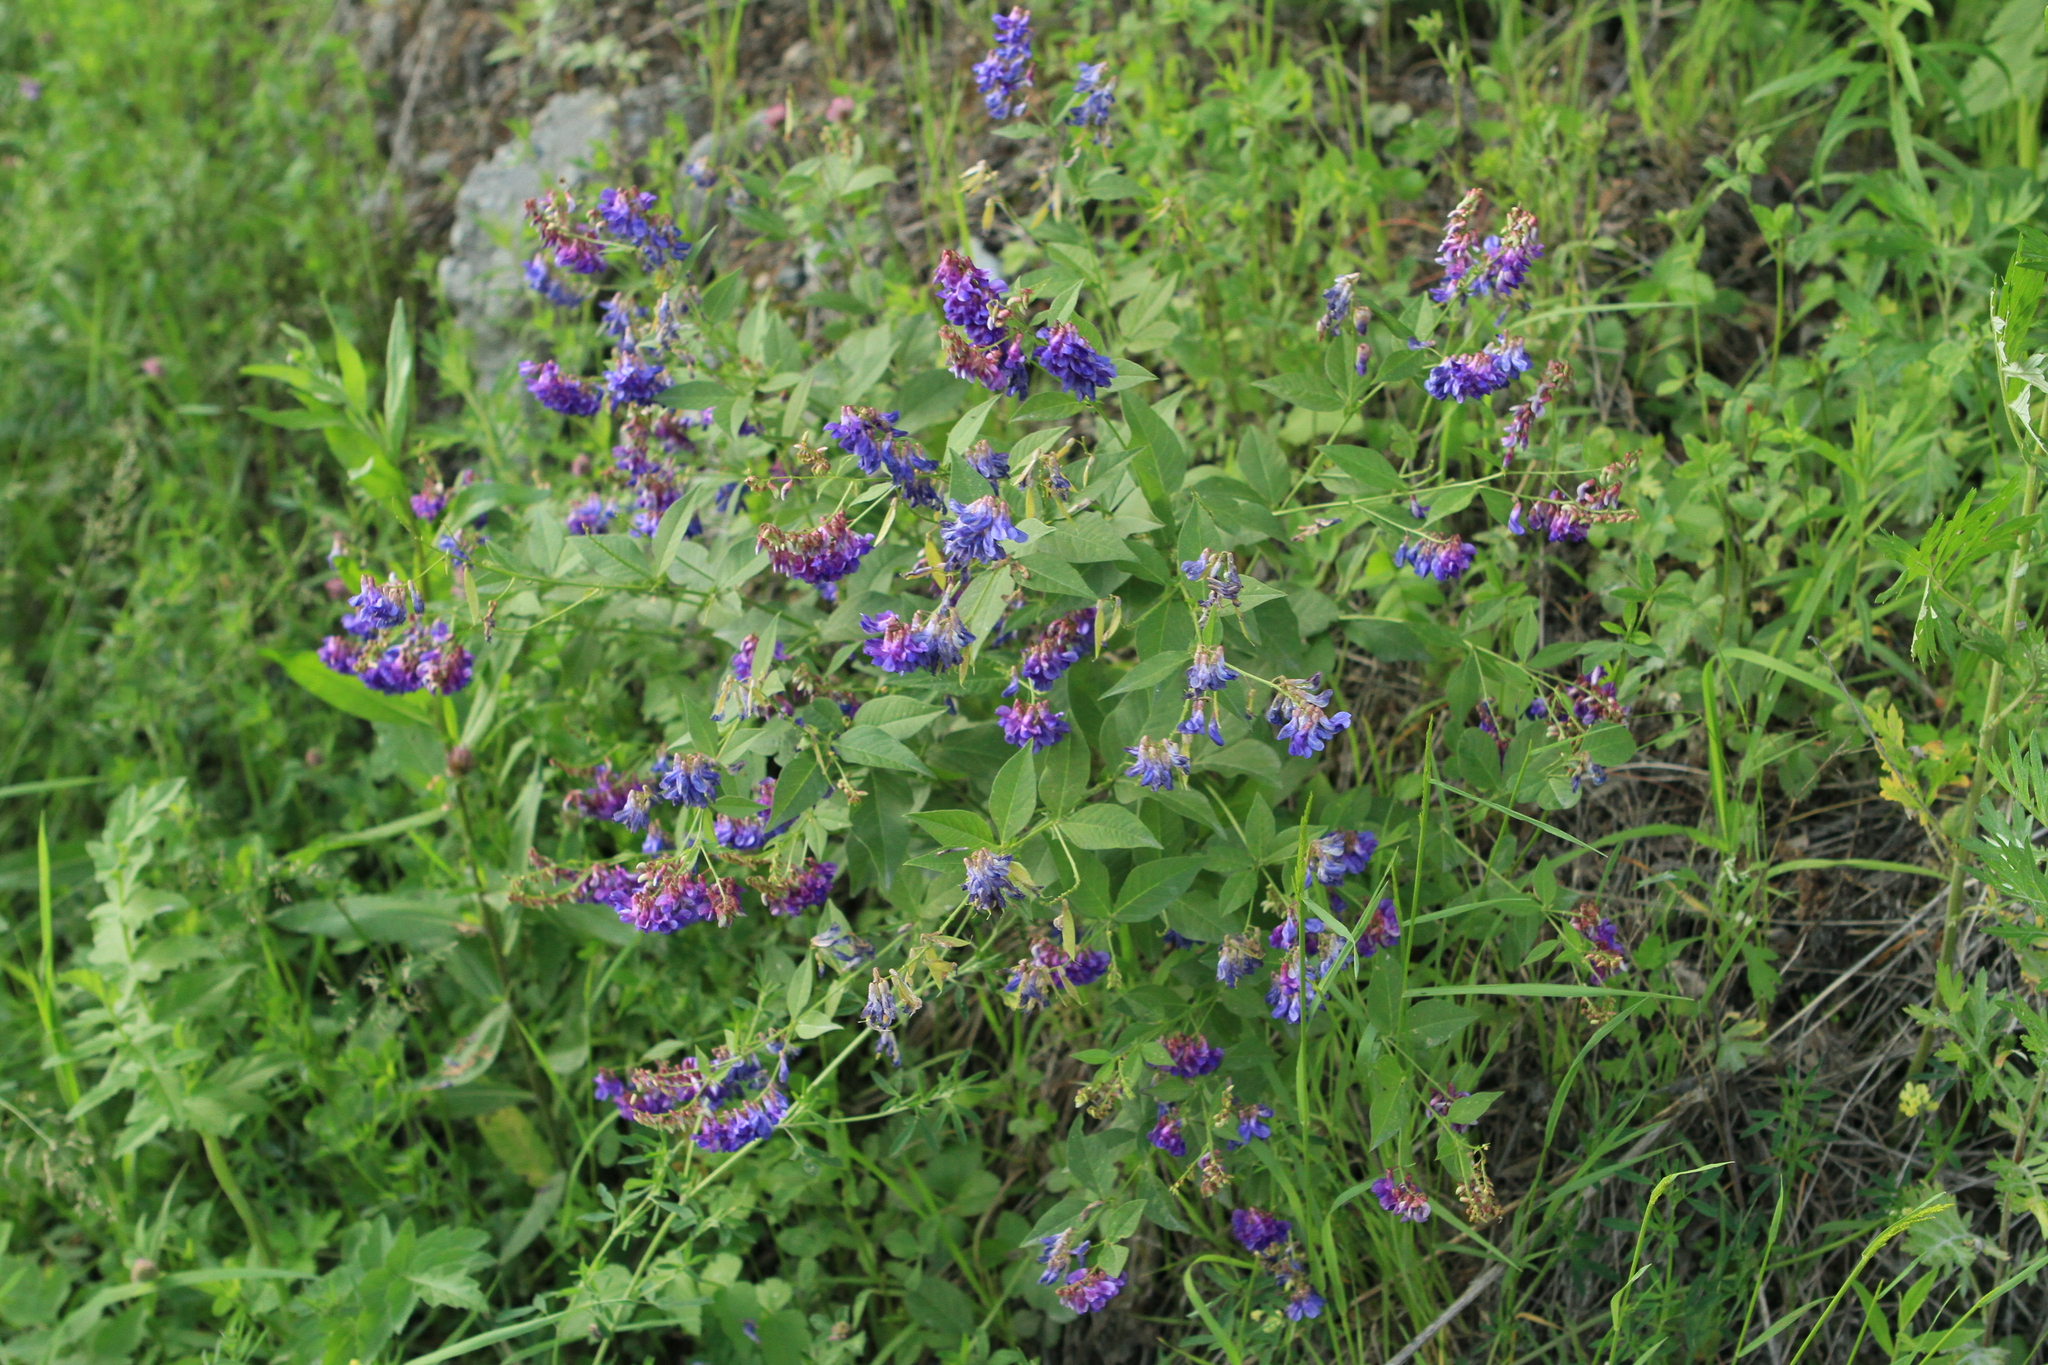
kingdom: Plantae
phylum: Tracheophyta
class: Magnoliopsida
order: Fabales
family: Fabaceae
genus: Vicia
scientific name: Vicia unijuga
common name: Two-leaf vetch
